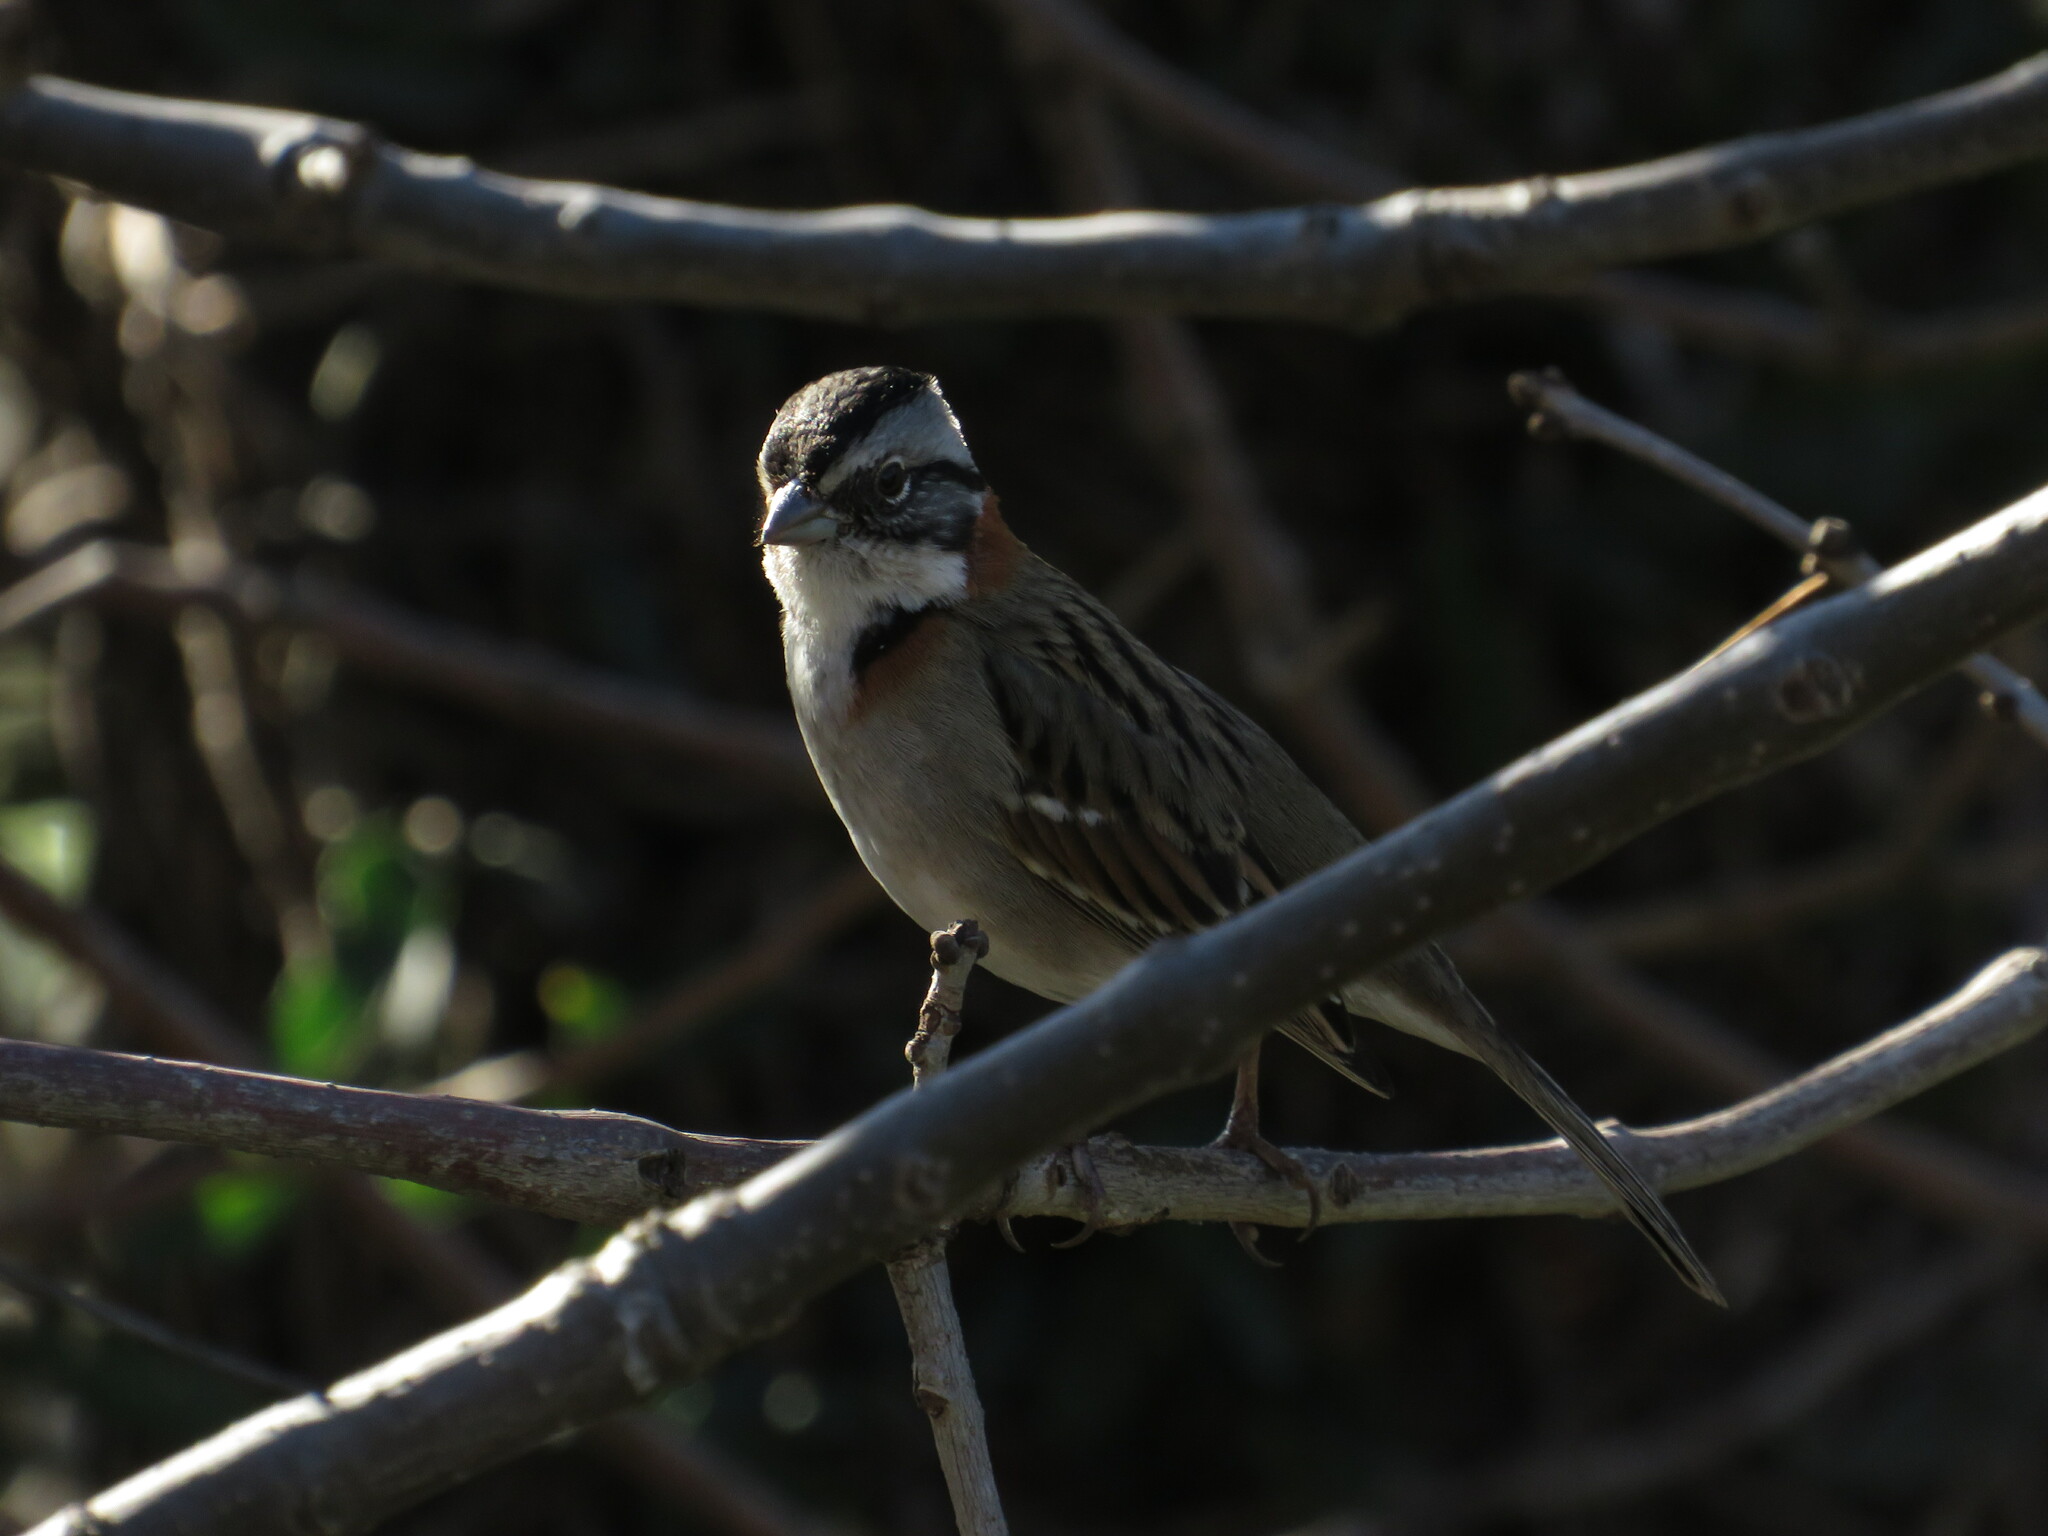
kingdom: Animalia
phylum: Chordata
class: Aves
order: Passeriformes
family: Passerellidae
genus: Zonotrichia
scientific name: Zonotrichia capensis
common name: Rufous-collared sparrow
